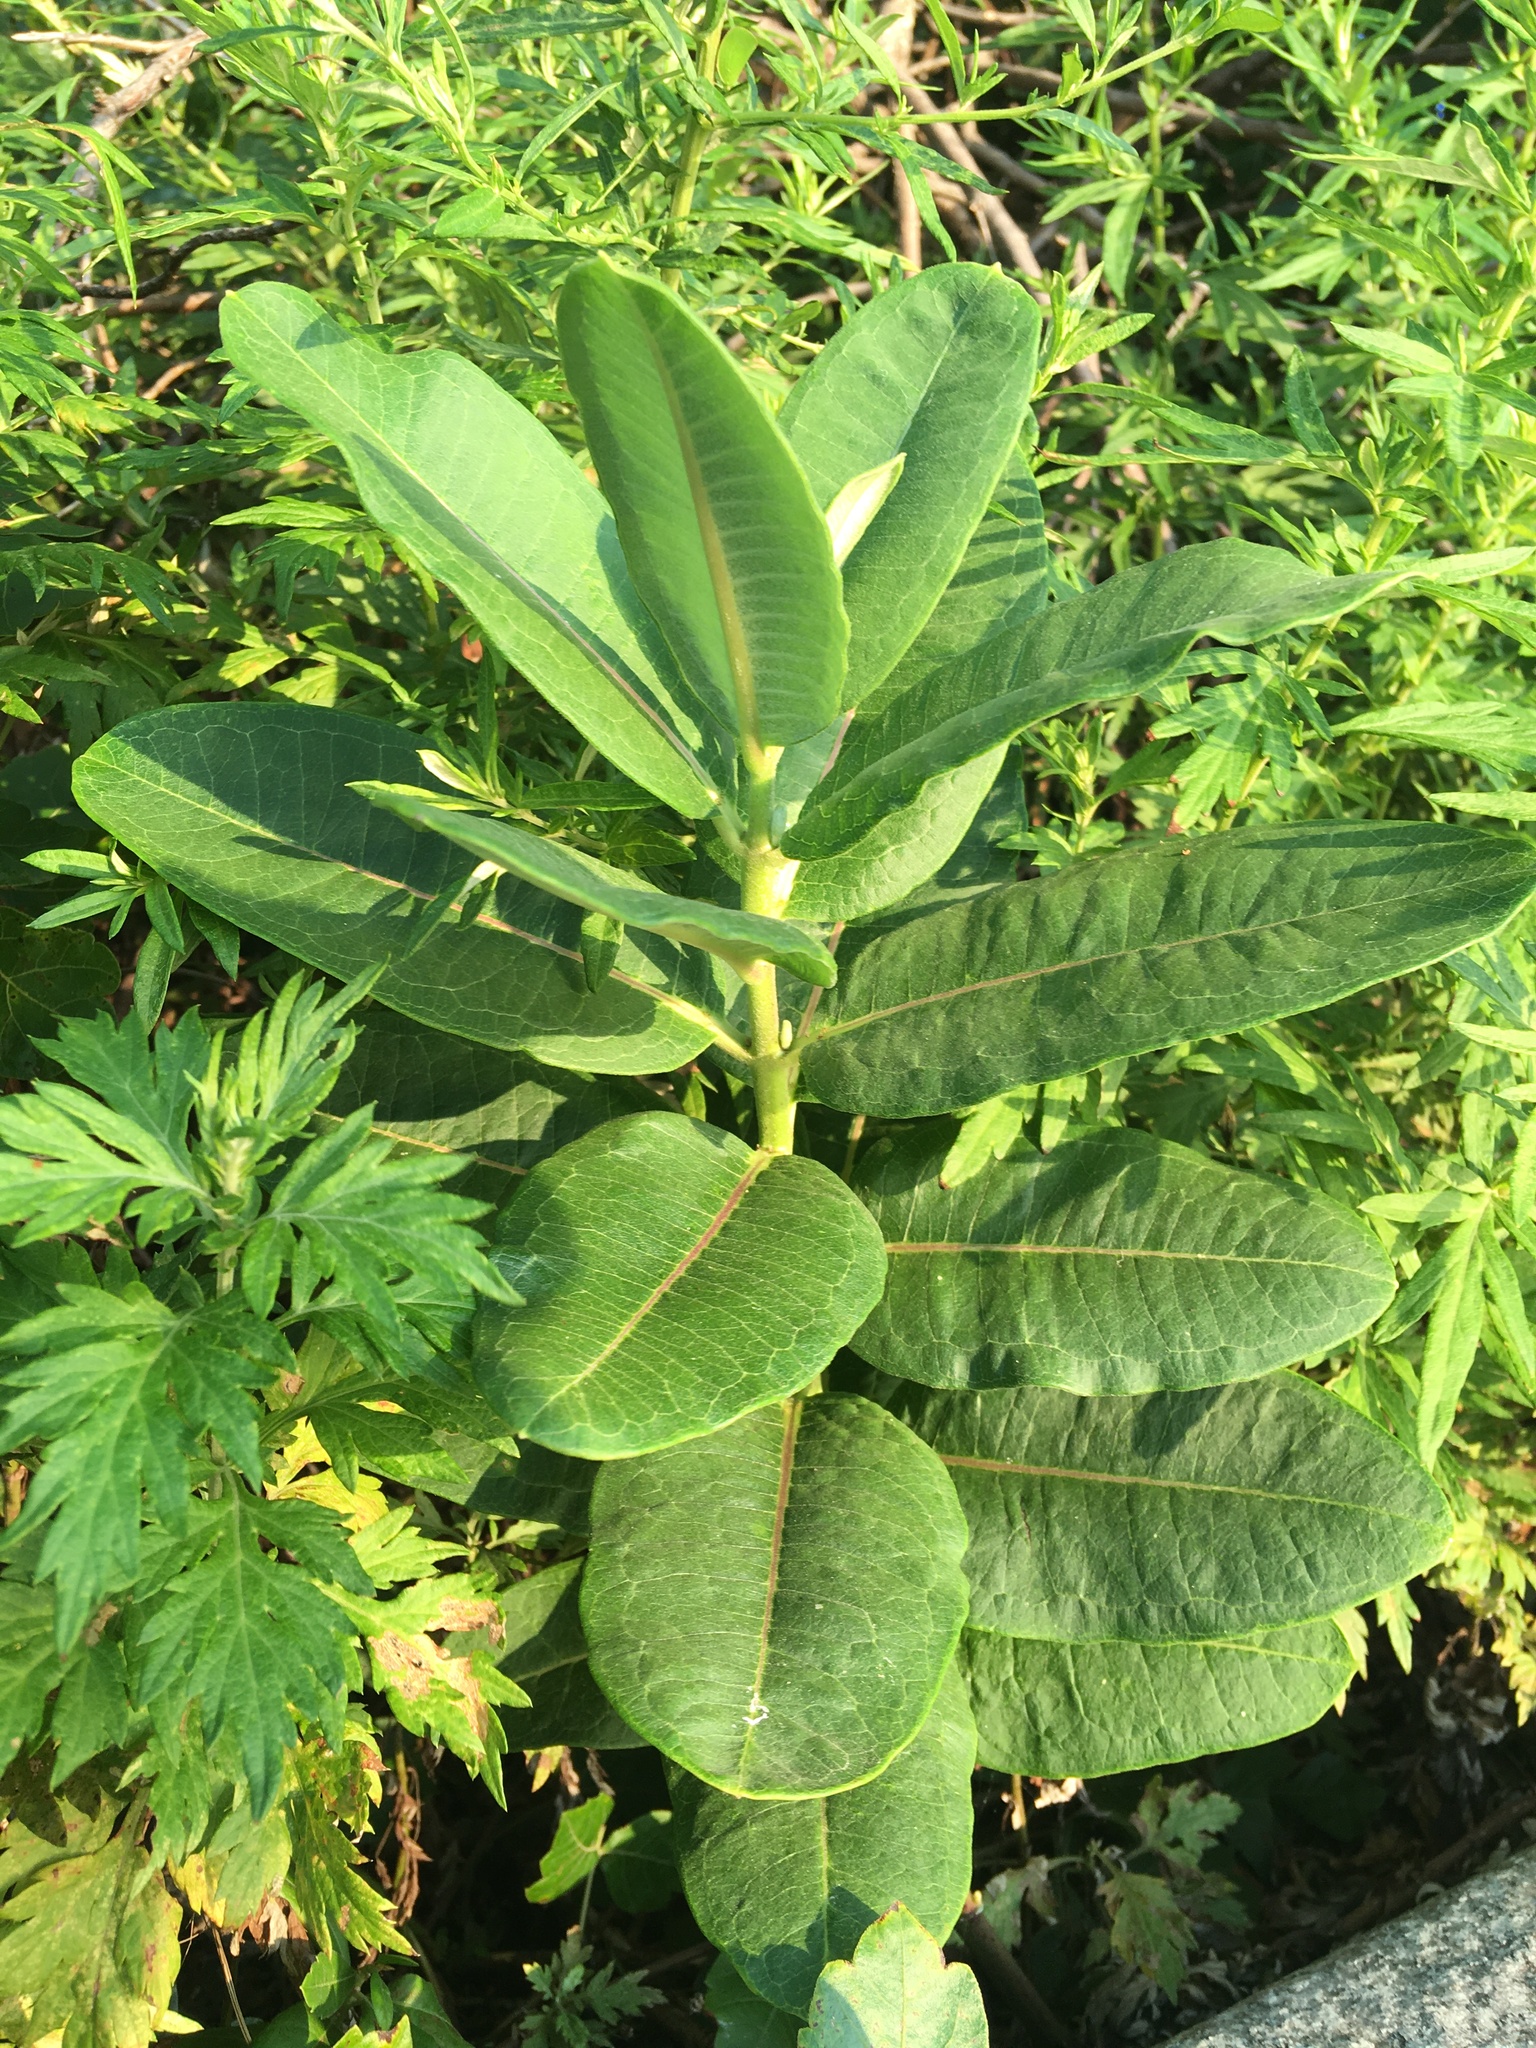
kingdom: Plantae
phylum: Tracheophyta
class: Magnoliopsida
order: Gentianales
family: Apocynaceae
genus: Asclepias
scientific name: Asclepias syriaca
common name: Common milkweed
